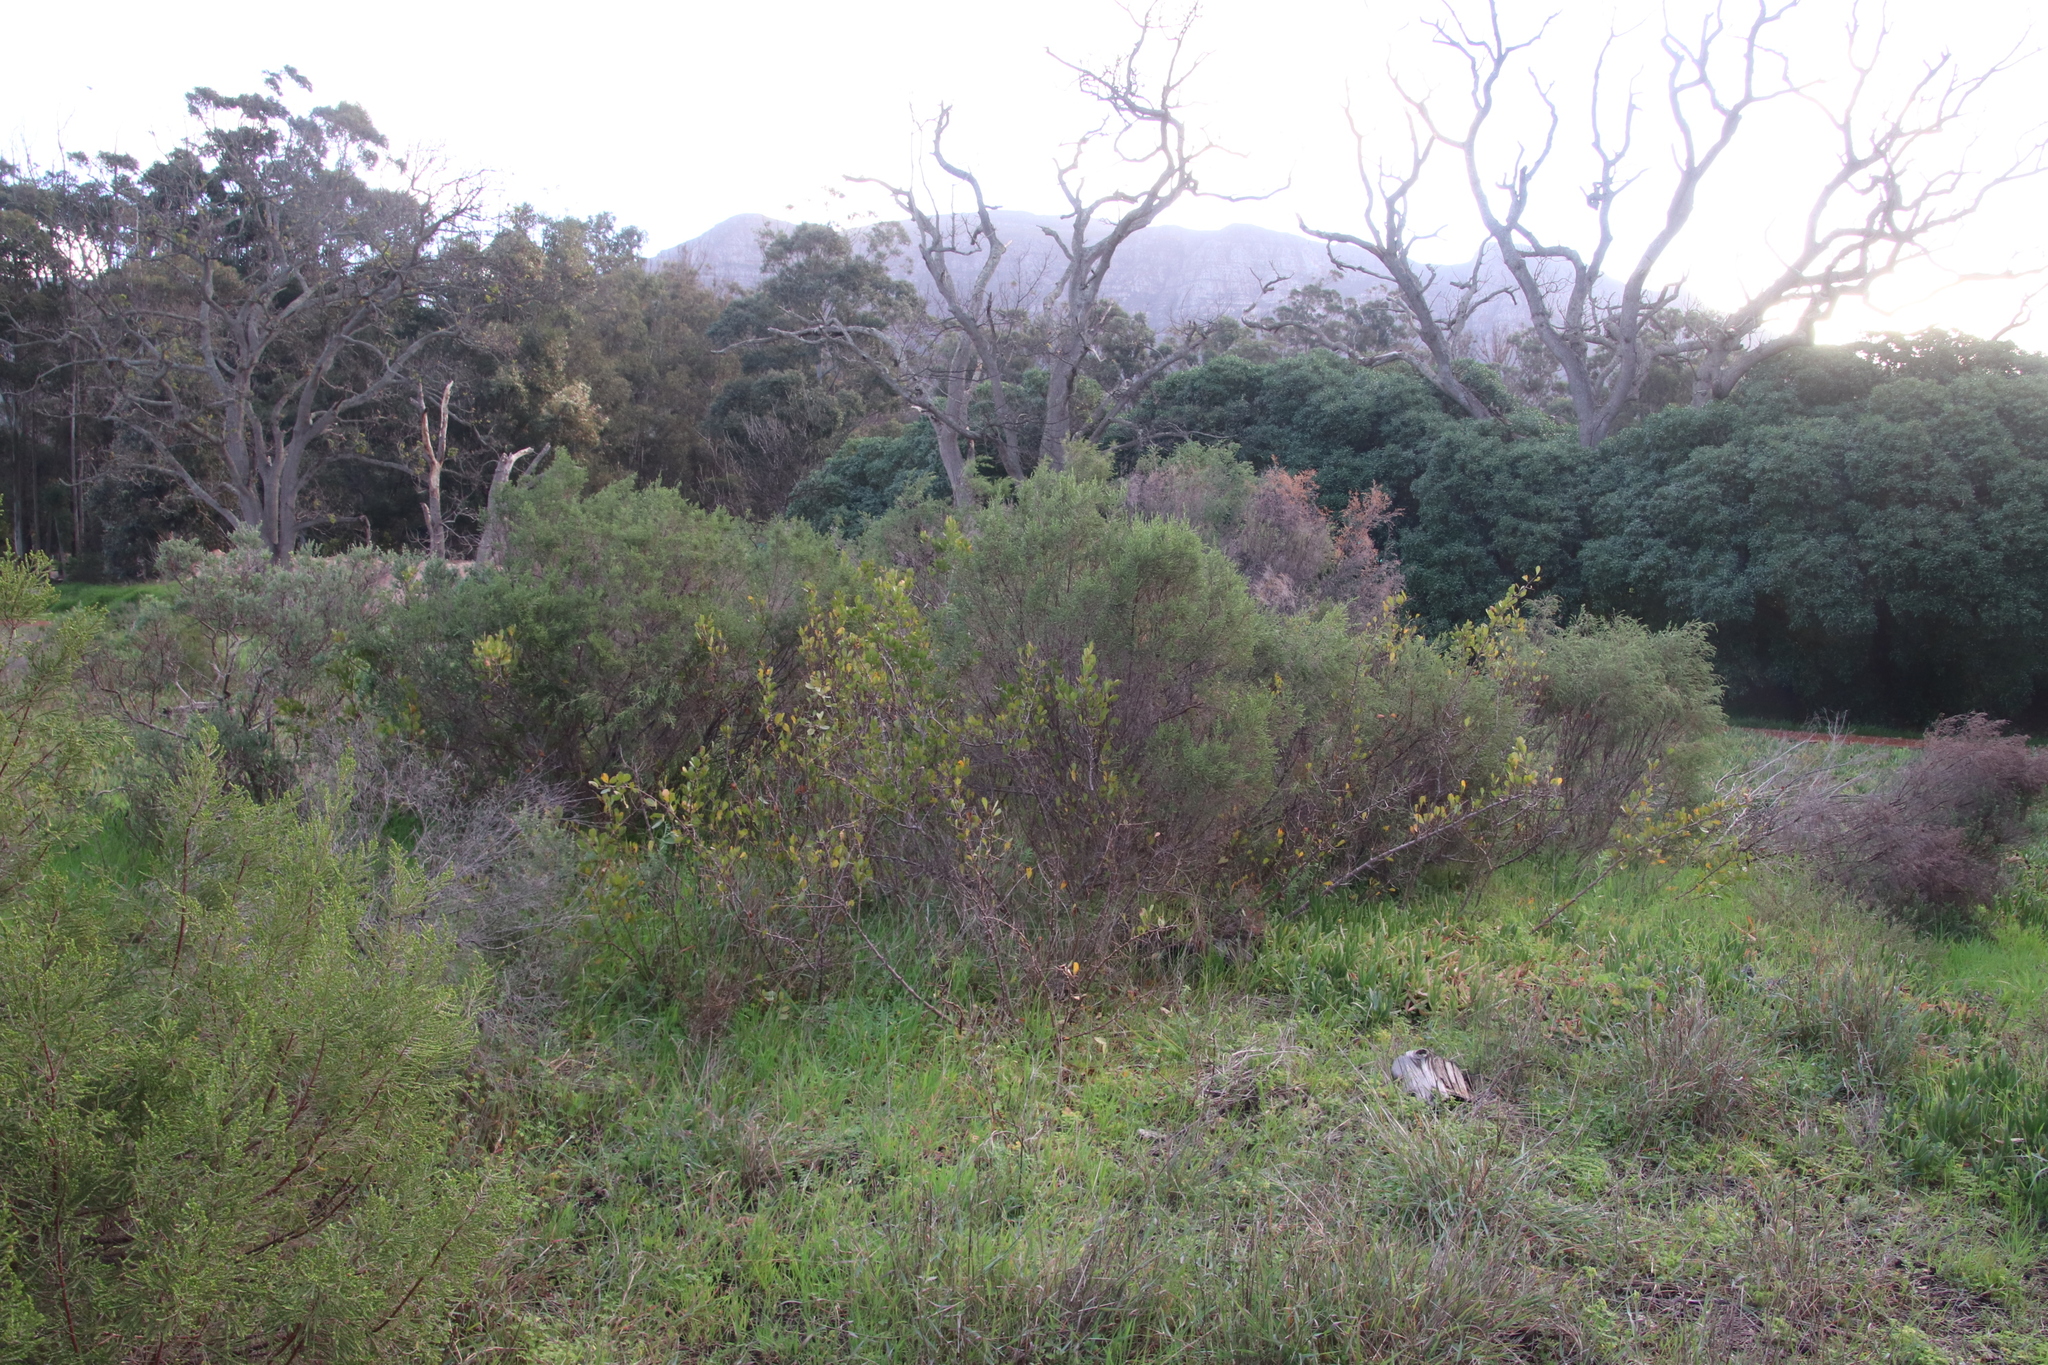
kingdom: Plantae
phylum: Tracheophyta
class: Magnoliopsida
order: Sapindales
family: Anacardiaceae
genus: Searsia
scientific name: Searsia laevigata
